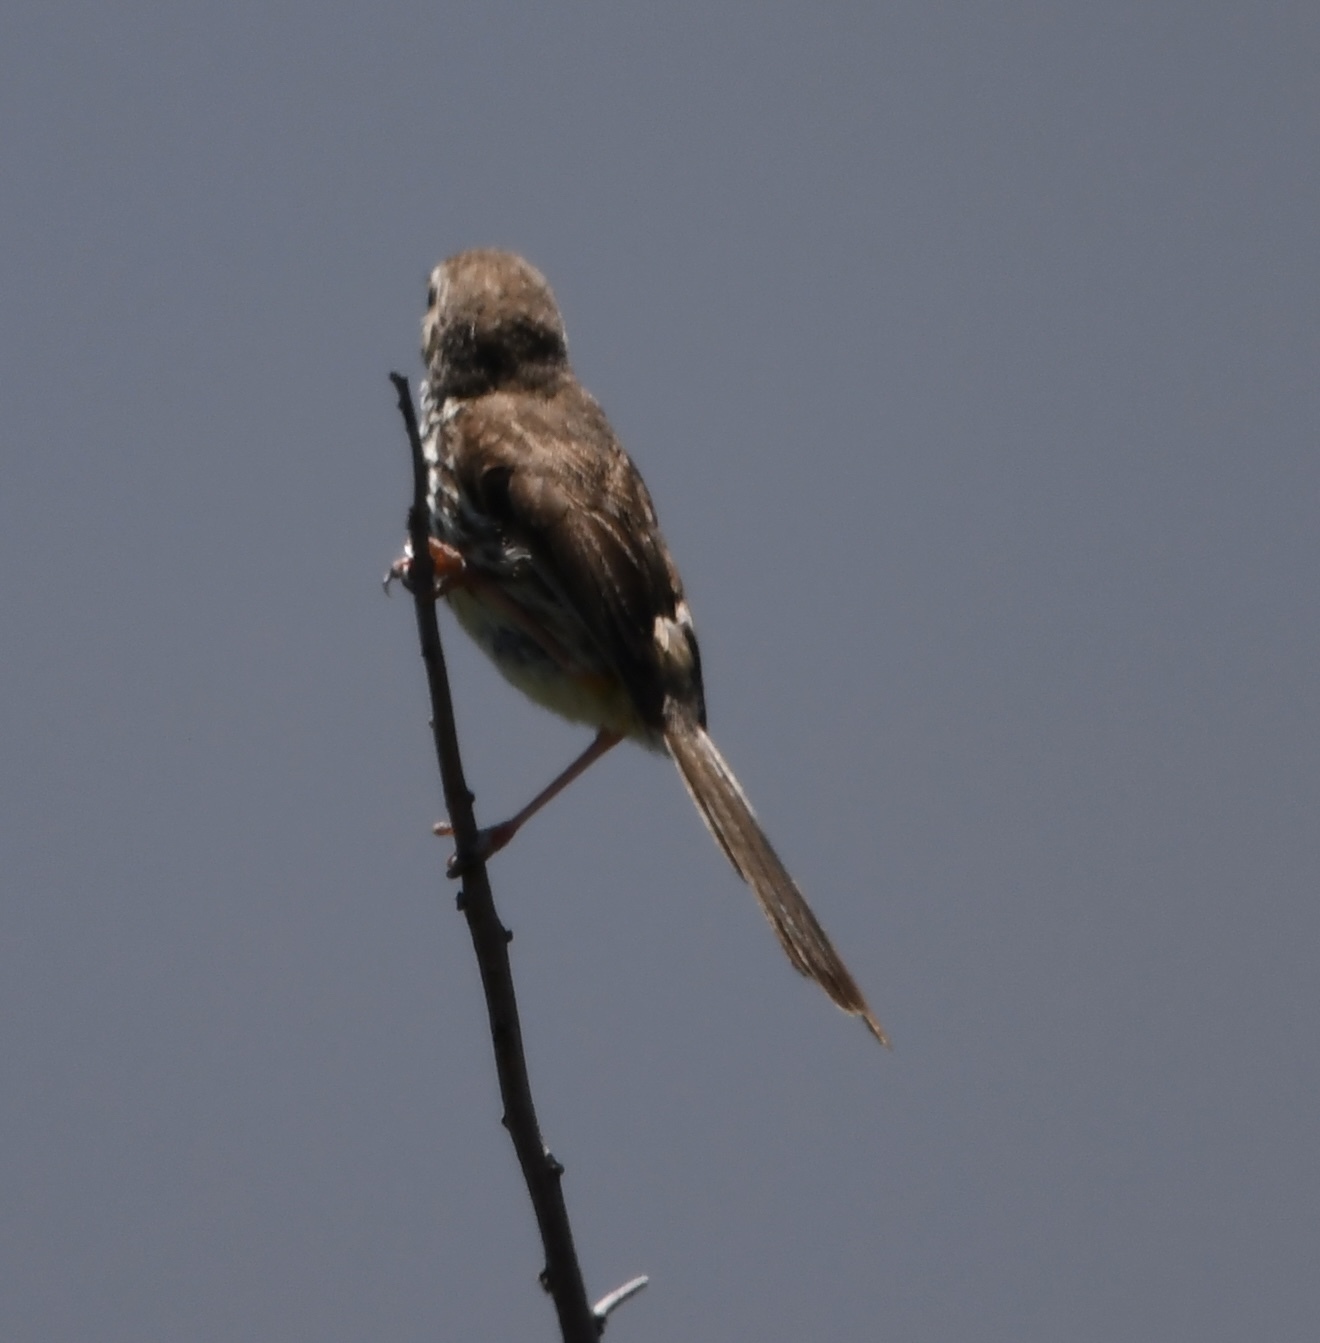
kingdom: Animalia
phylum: Chordata
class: Aves
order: Passeriformes
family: Cisticolidae
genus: Prinia
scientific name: Prinia maculosa
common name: Karoo prinia
